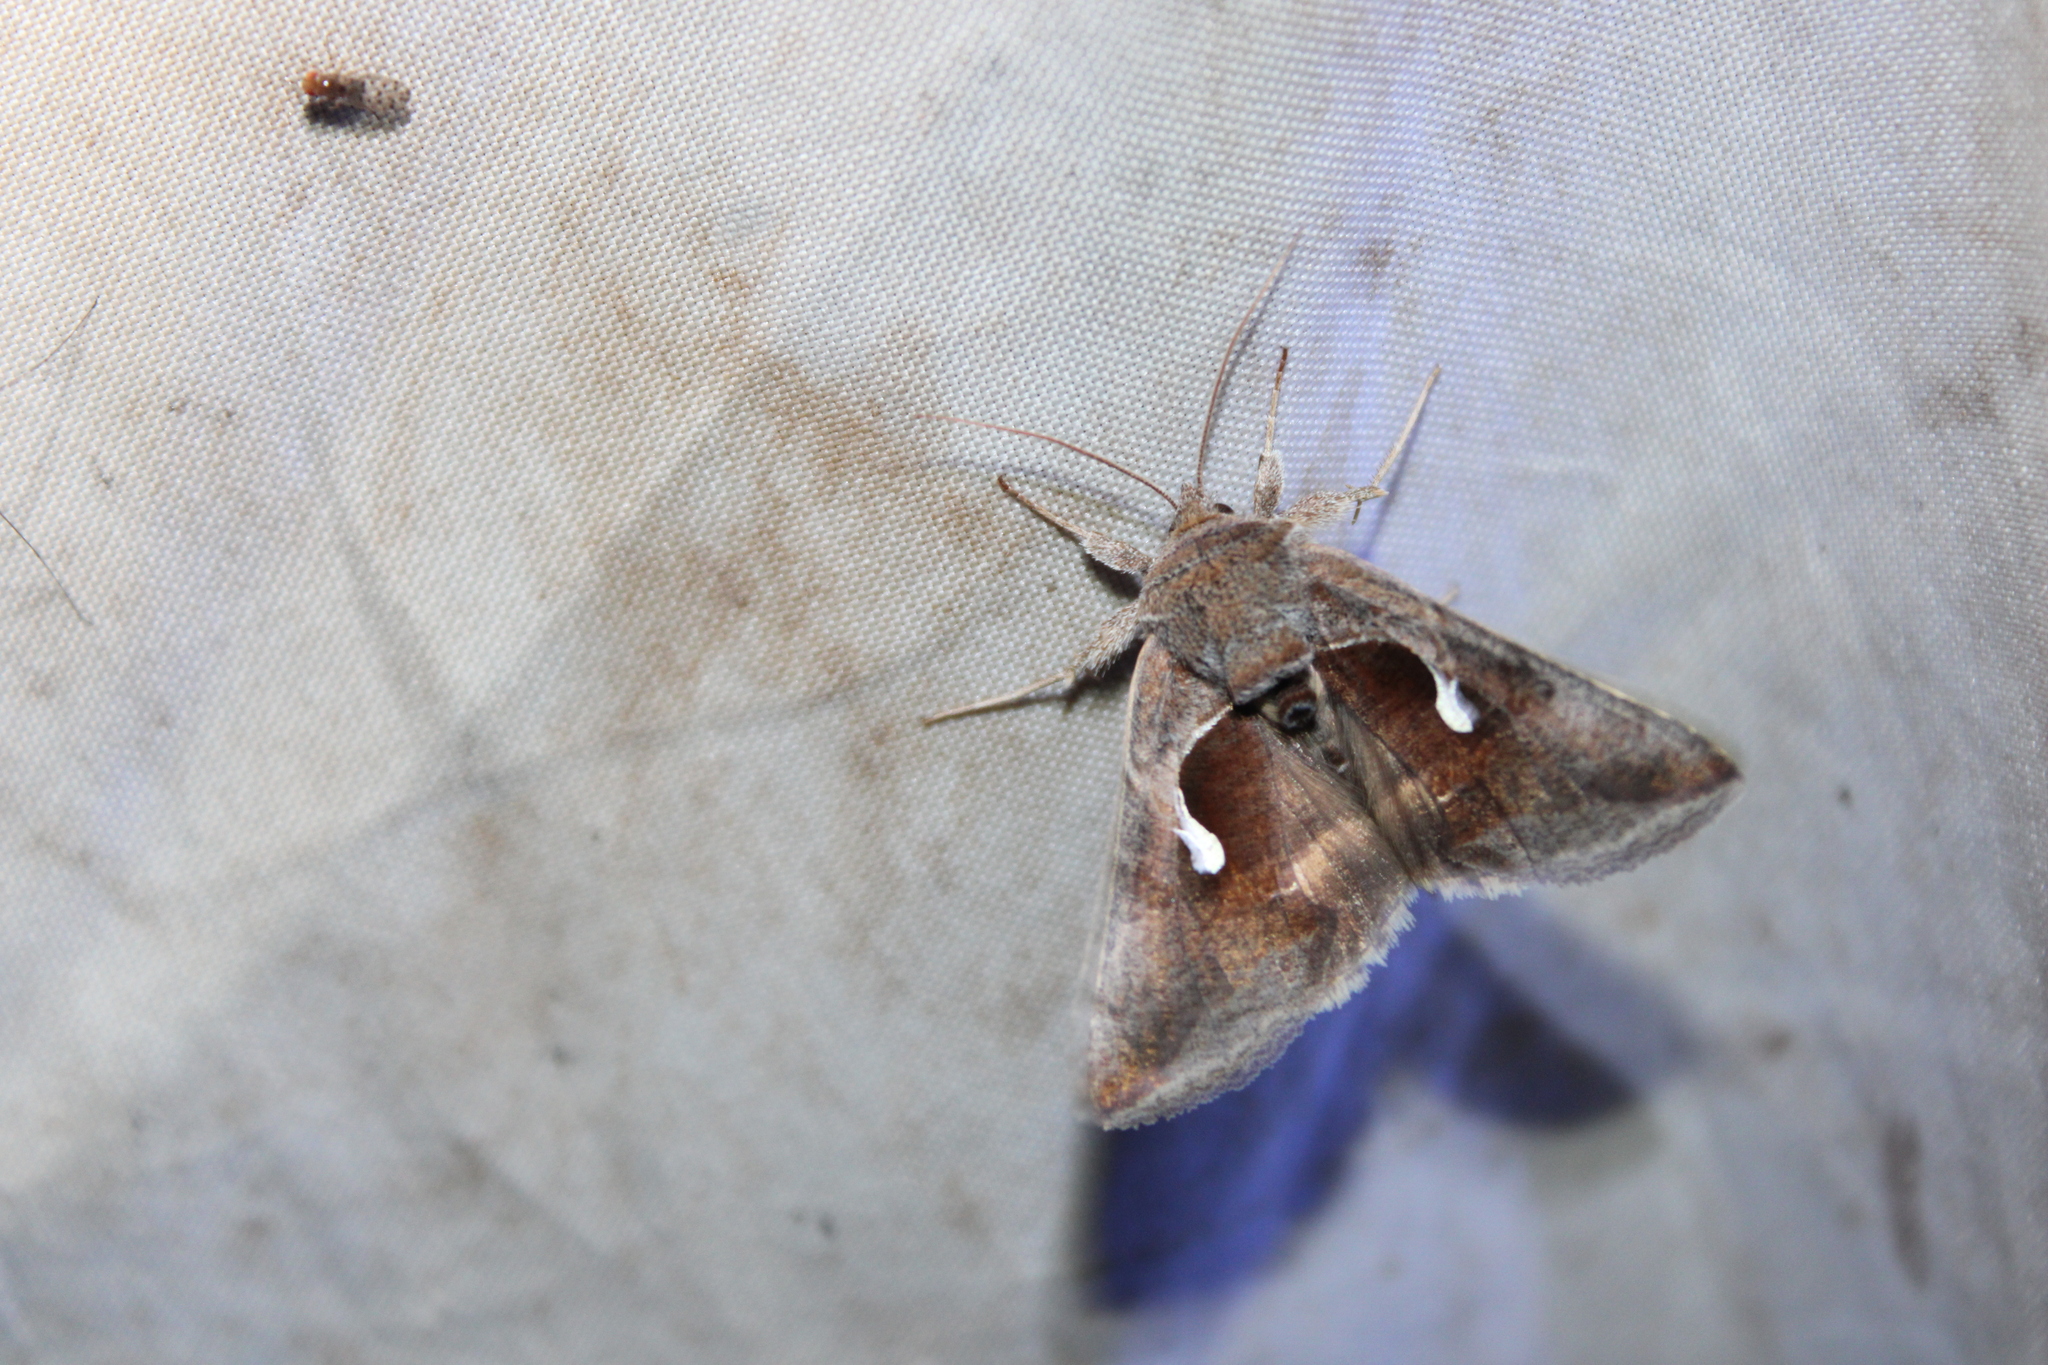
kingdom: Animalia
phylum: Arthropoda
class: Insecta
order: Lepidoptera
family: Noctuidae
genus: Anagrapha
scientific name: Anagrapha falcifera
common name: Celery looper
